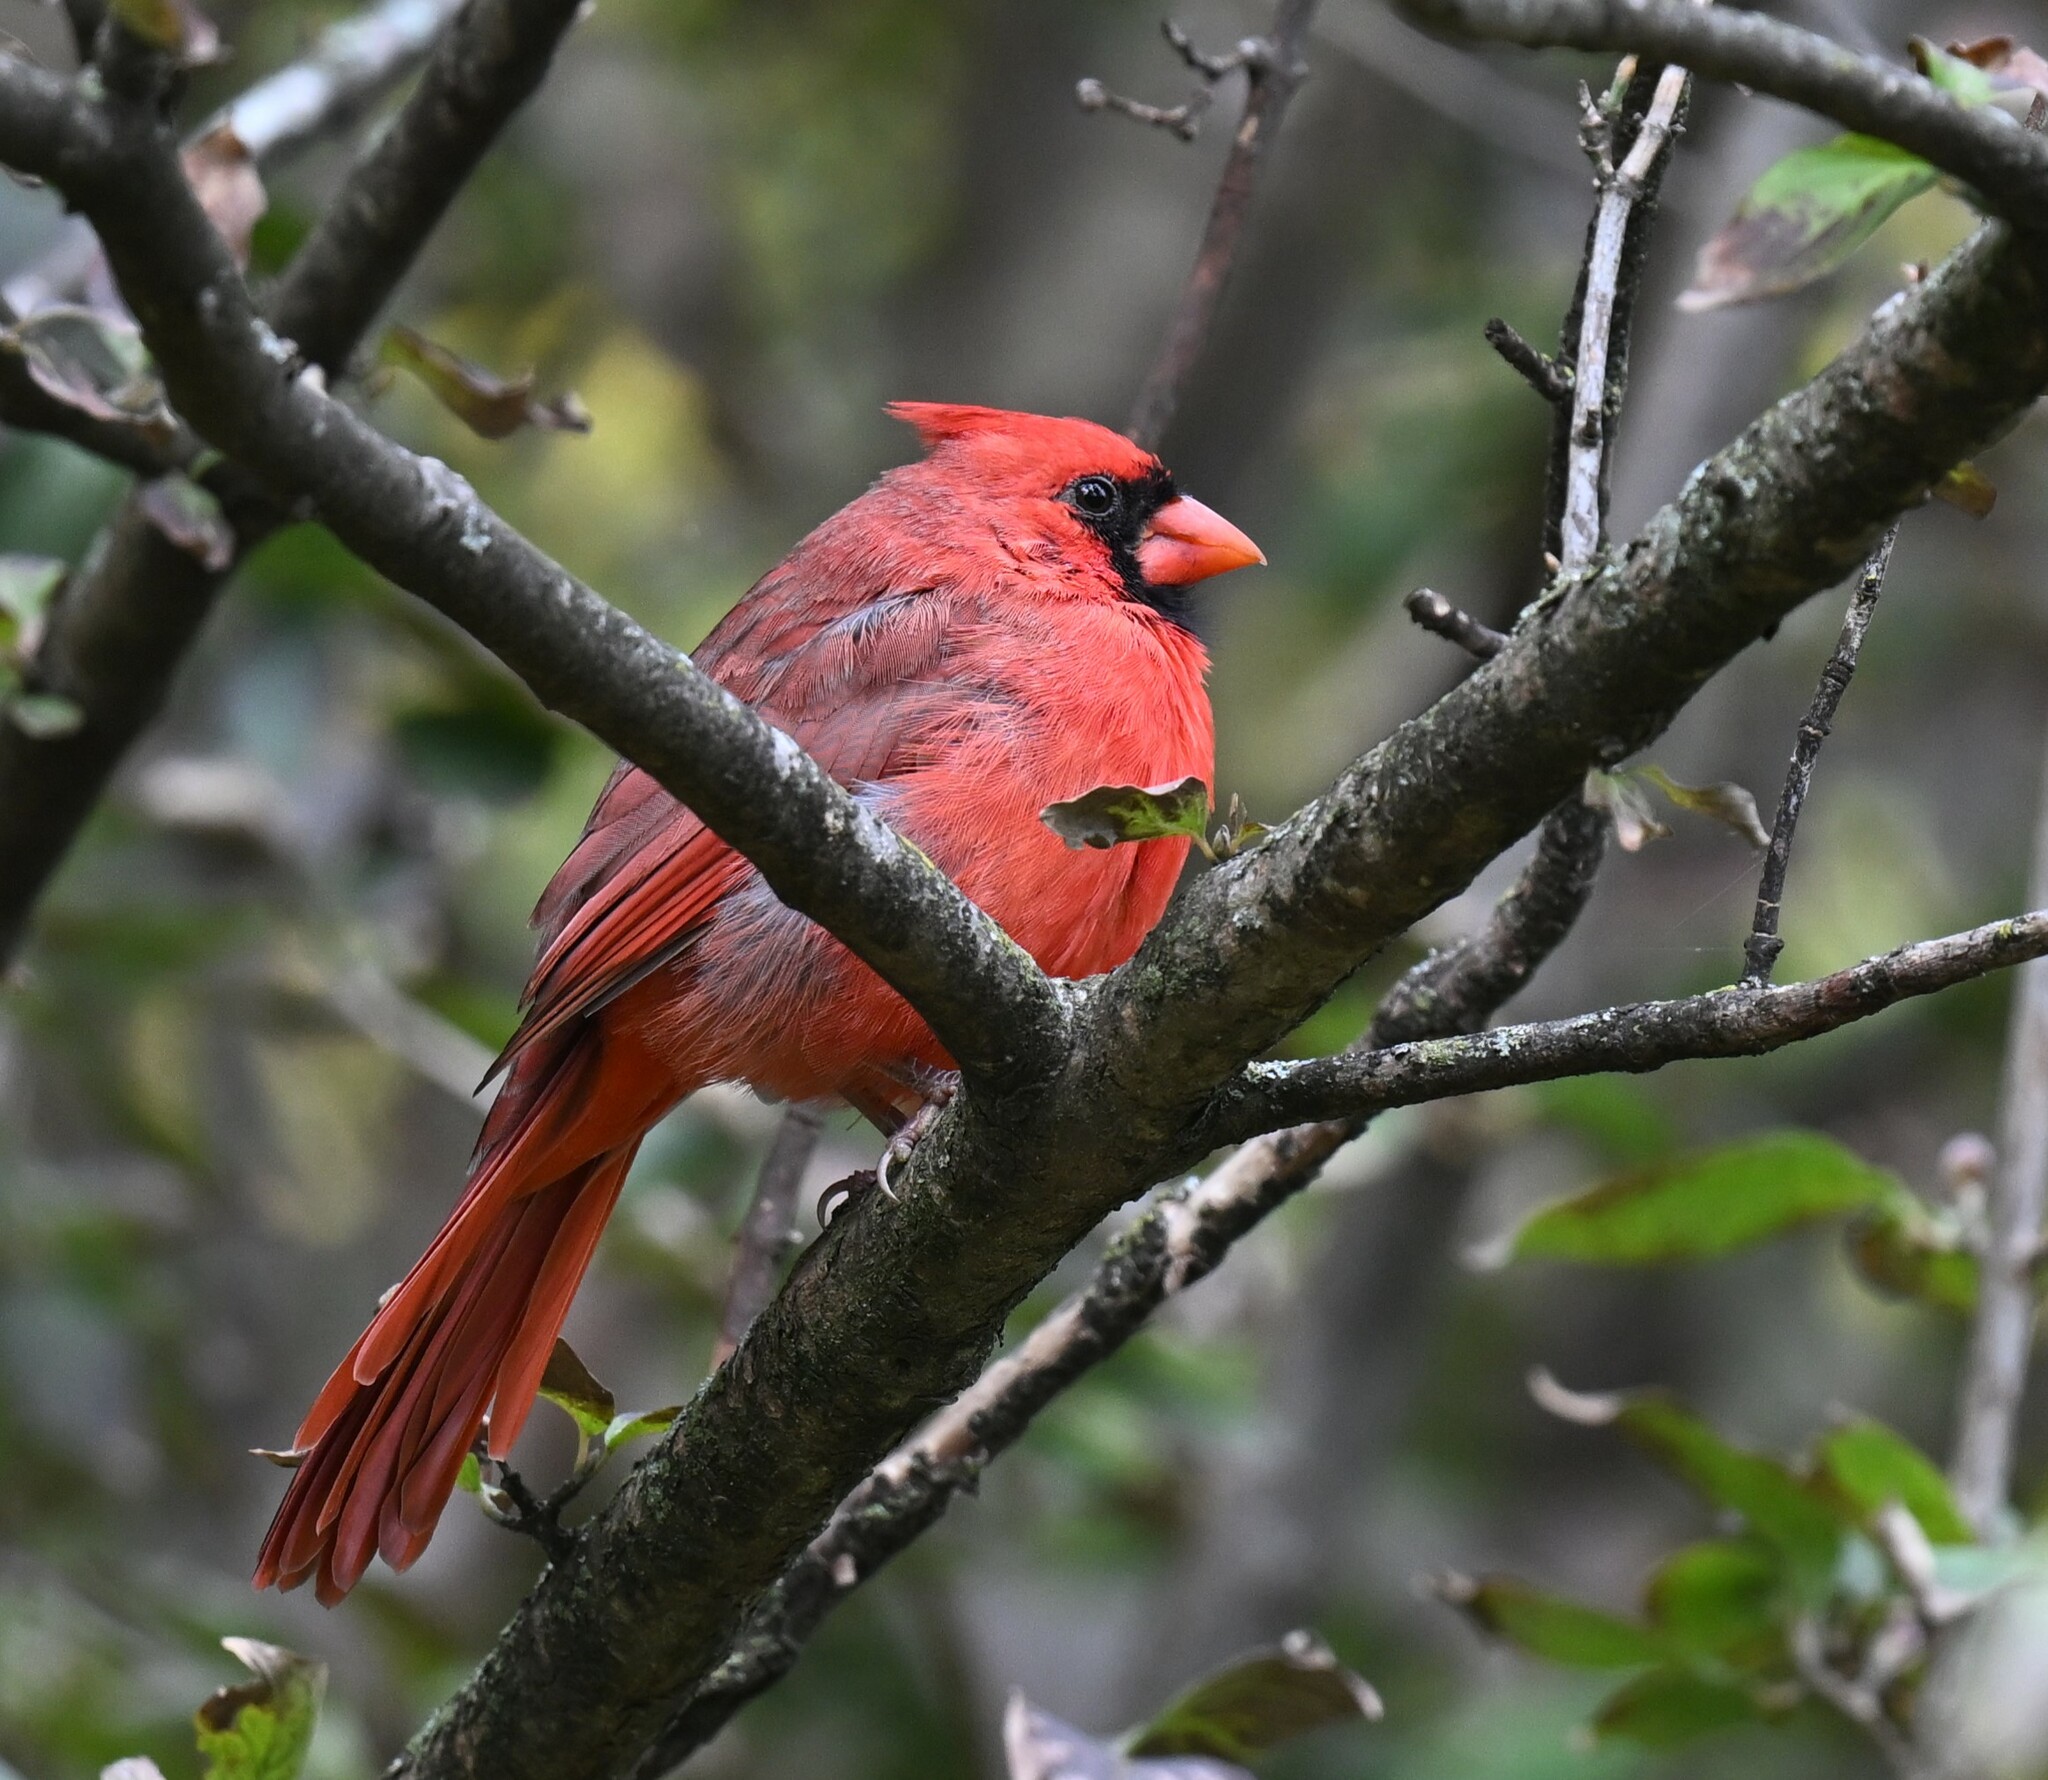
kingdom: Animalia
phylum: Chordata
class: Aves
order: Passeriformes
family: Cardinalidae
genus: Cardinalis
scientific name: Cardinalis cardinalis
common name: Northern cardinal
